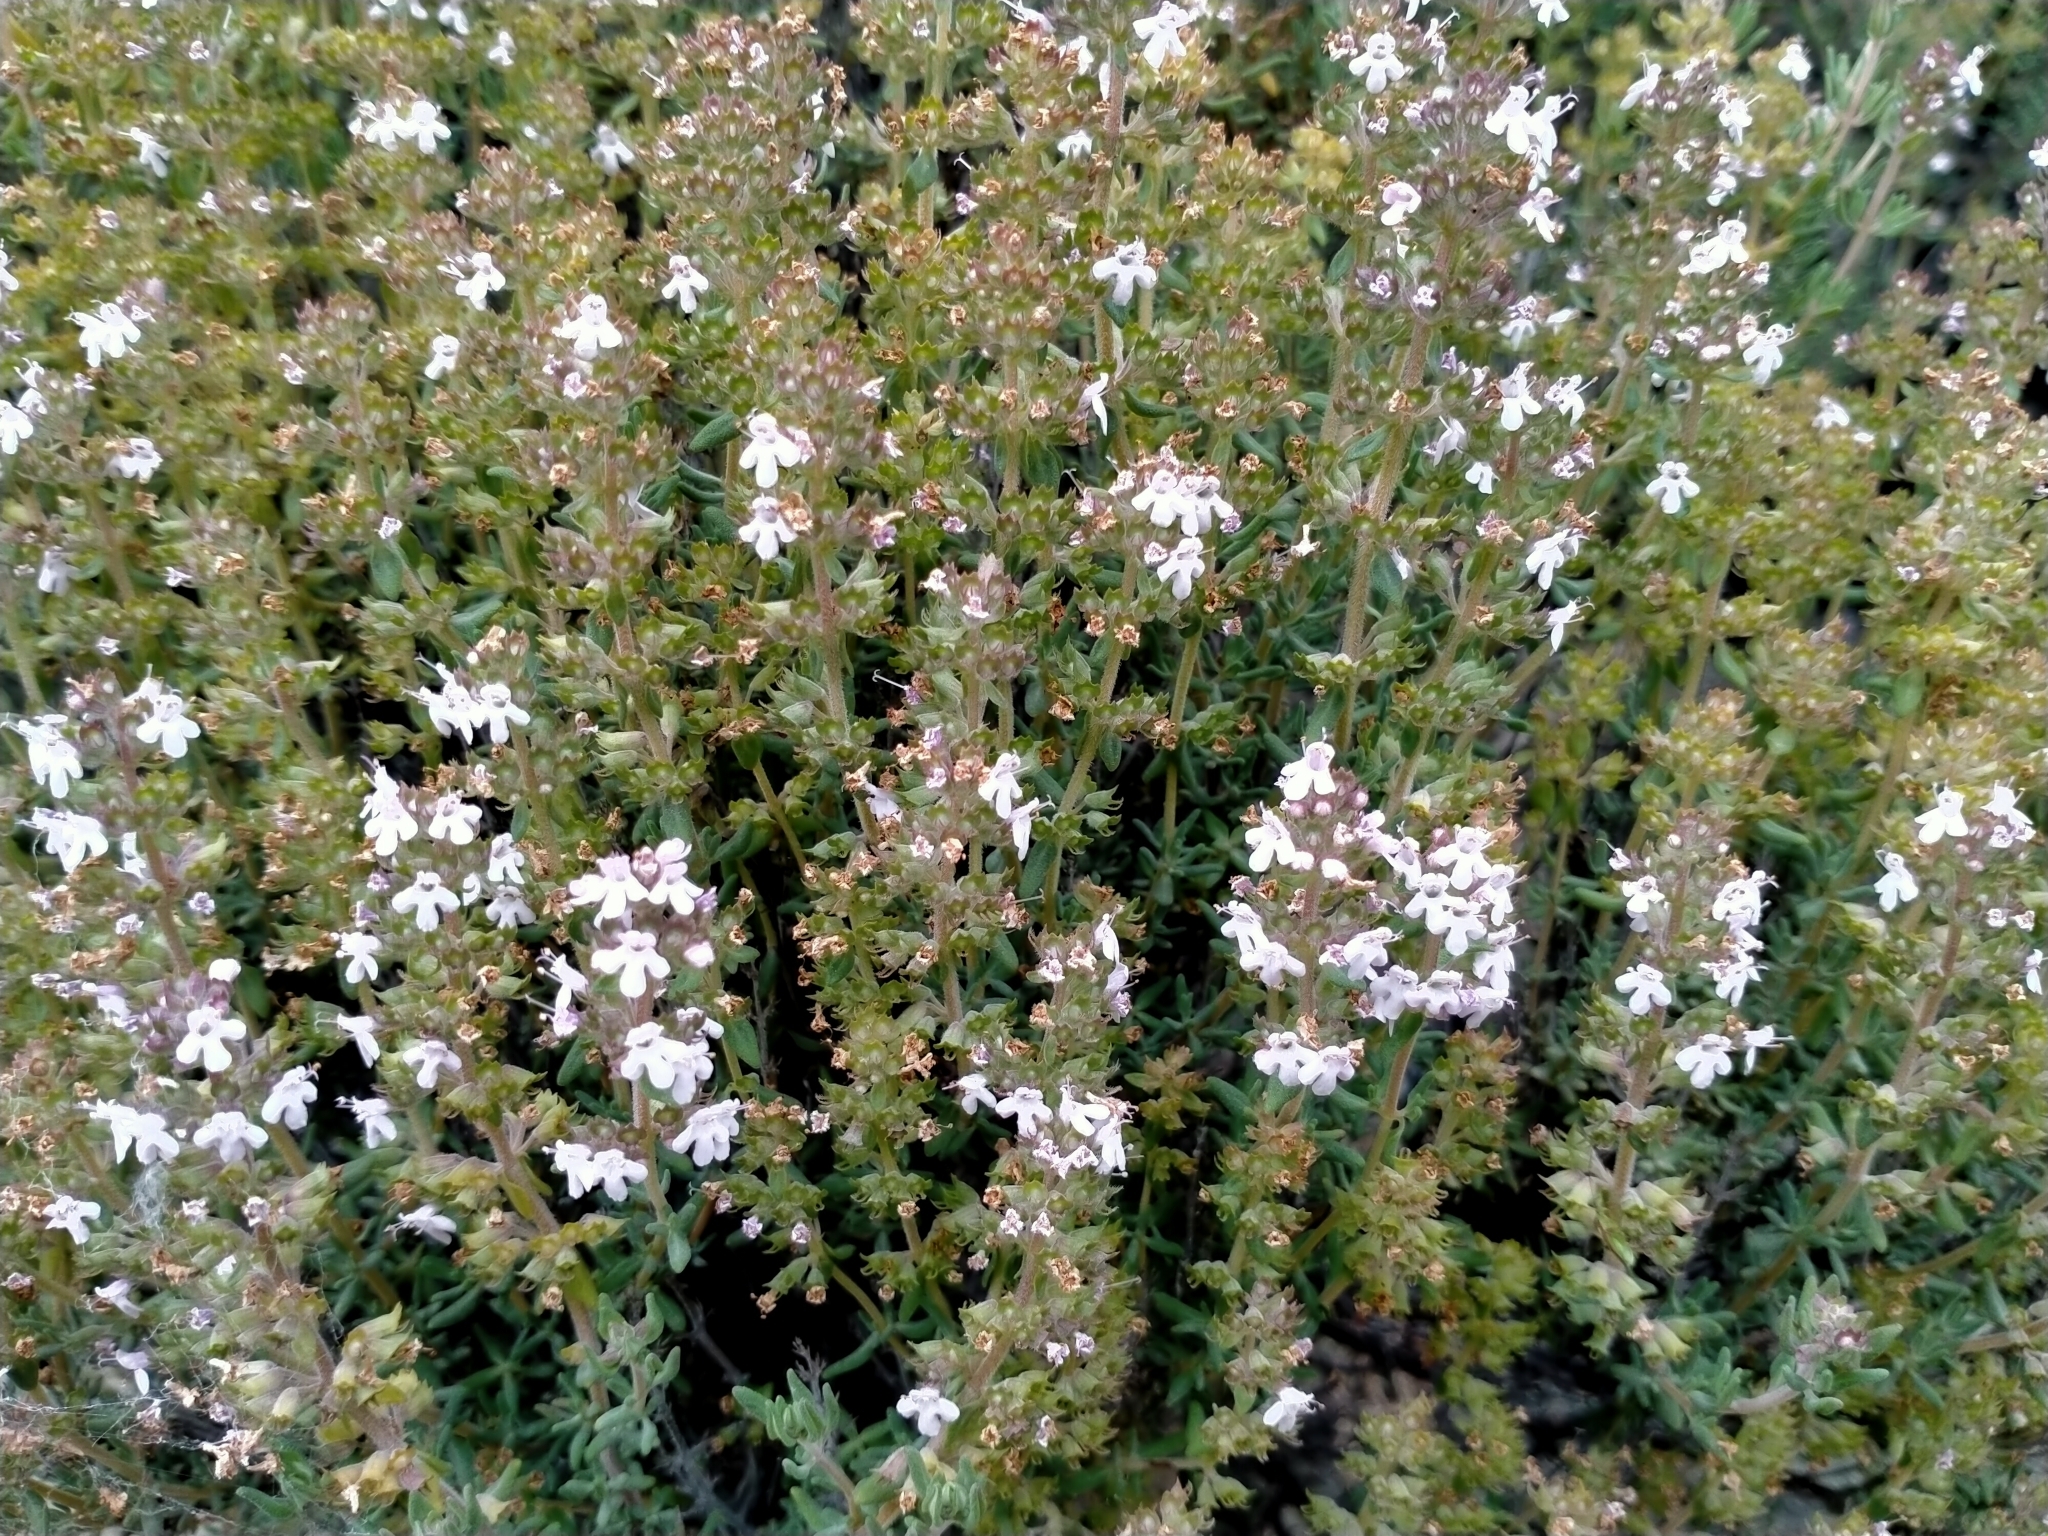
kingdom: Plantae
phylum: Tracheophyta
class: Magnoliopsida
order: Lamiales
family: Lamiaceae
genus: Thymus
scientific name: Thymus vulgaris
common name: Garden thyme
